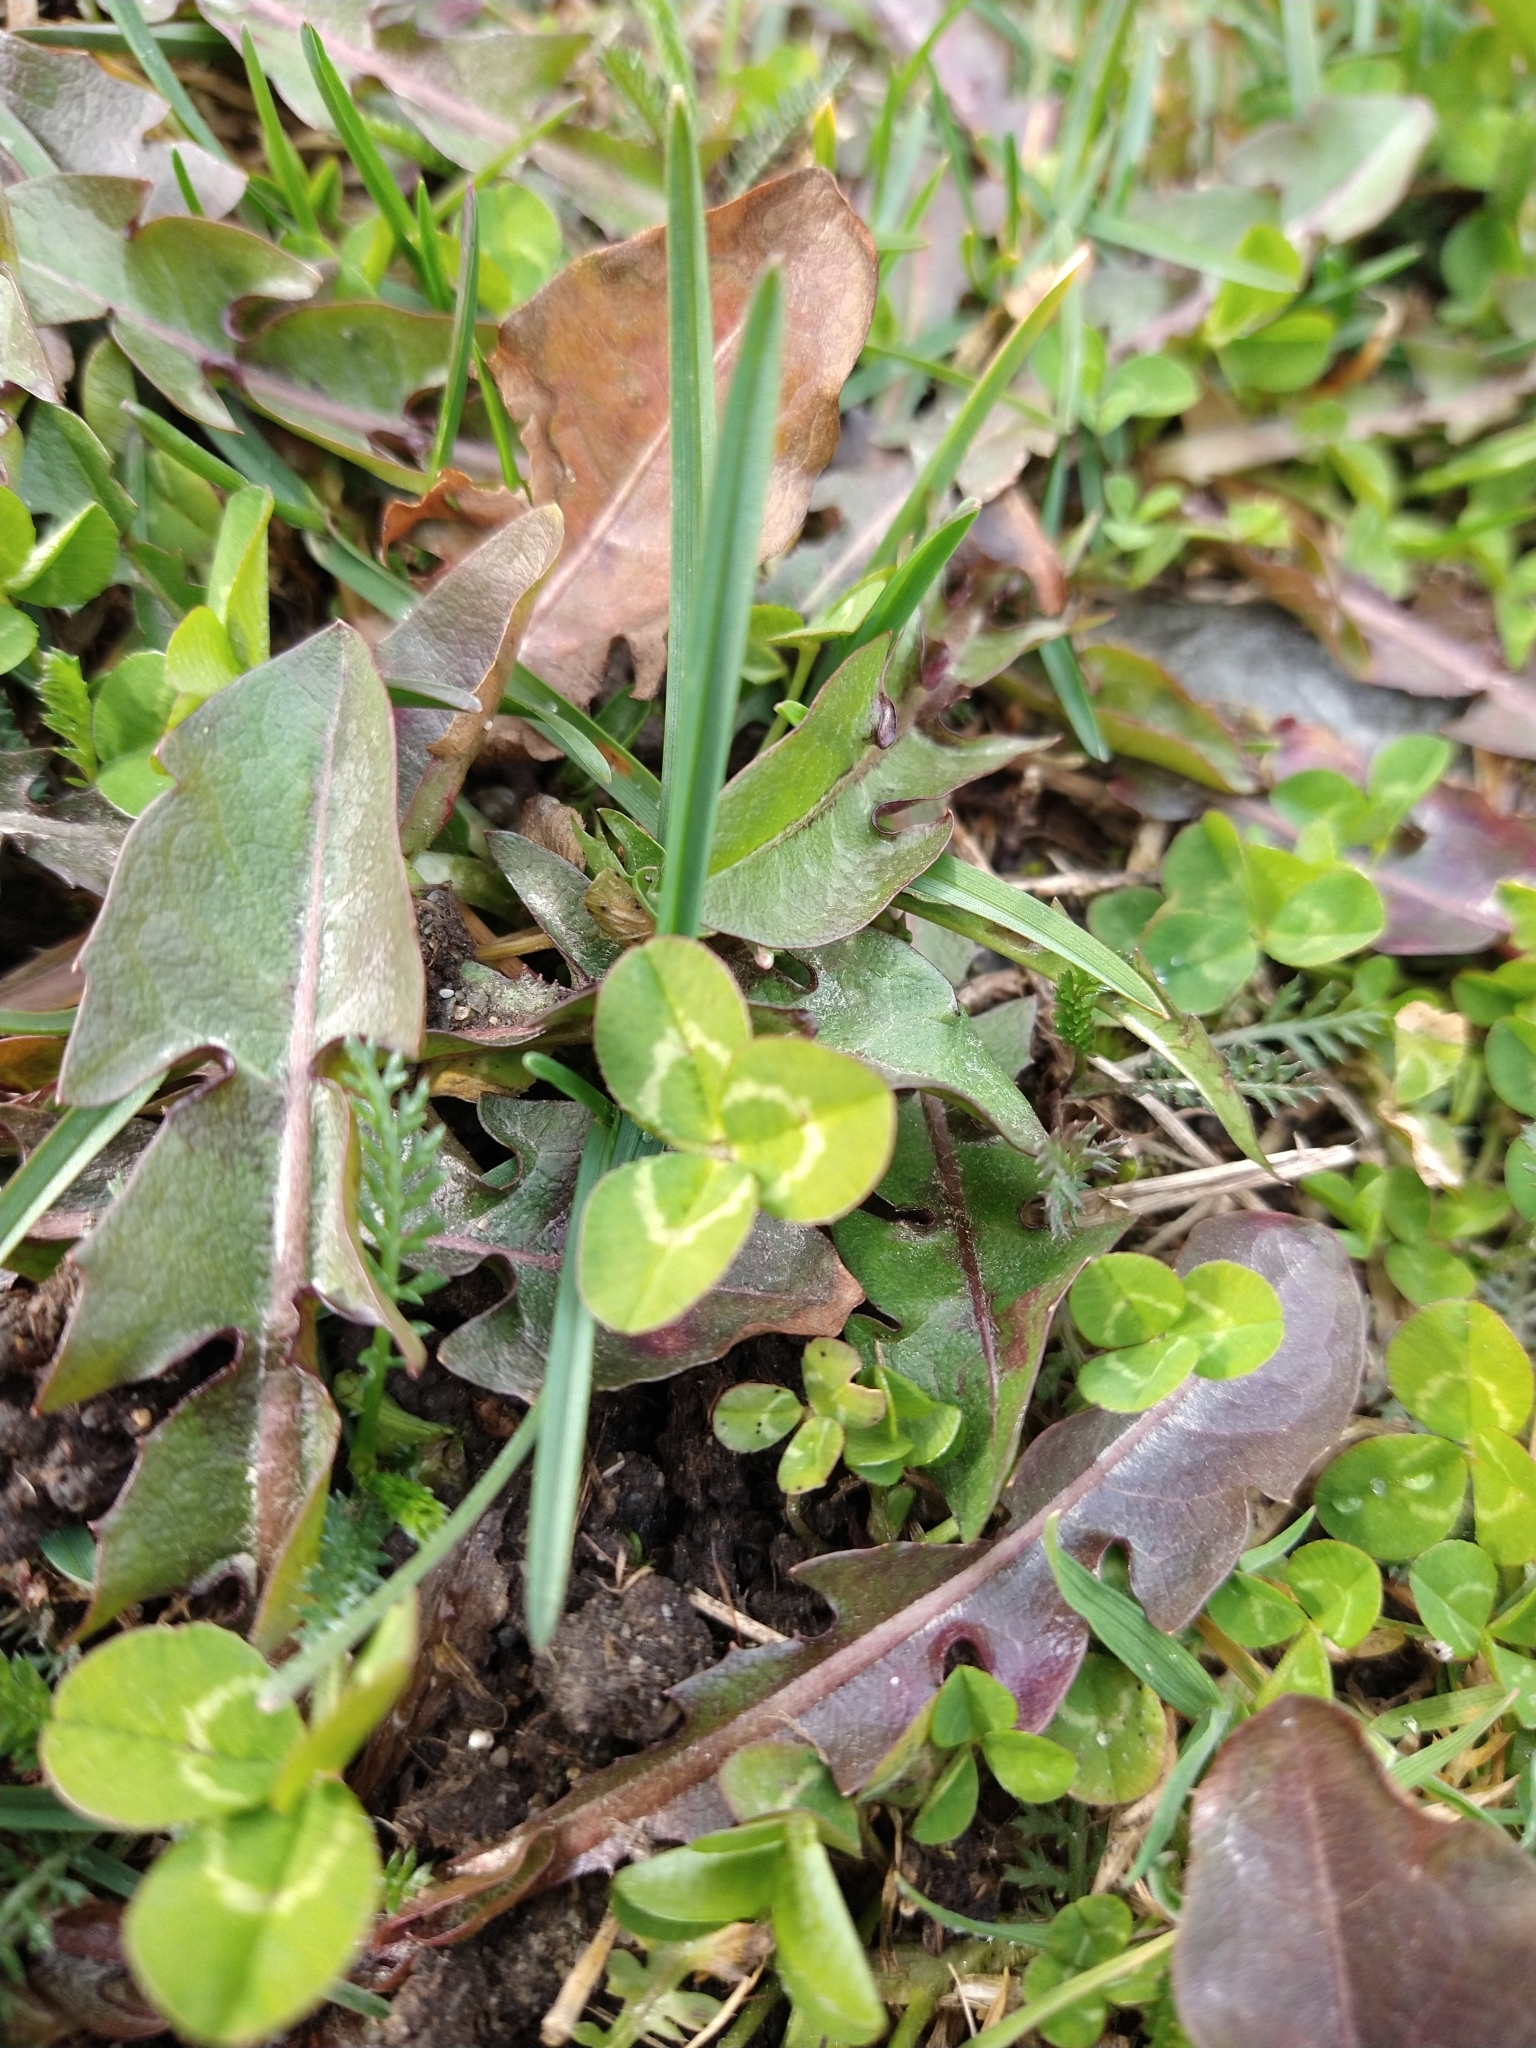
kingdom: Plantae
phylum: Tracheophyta
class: Magnoliopsida
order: Fabales
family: Fabaceae
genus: Trifolium
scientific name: Trifolium repens
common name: White clover
